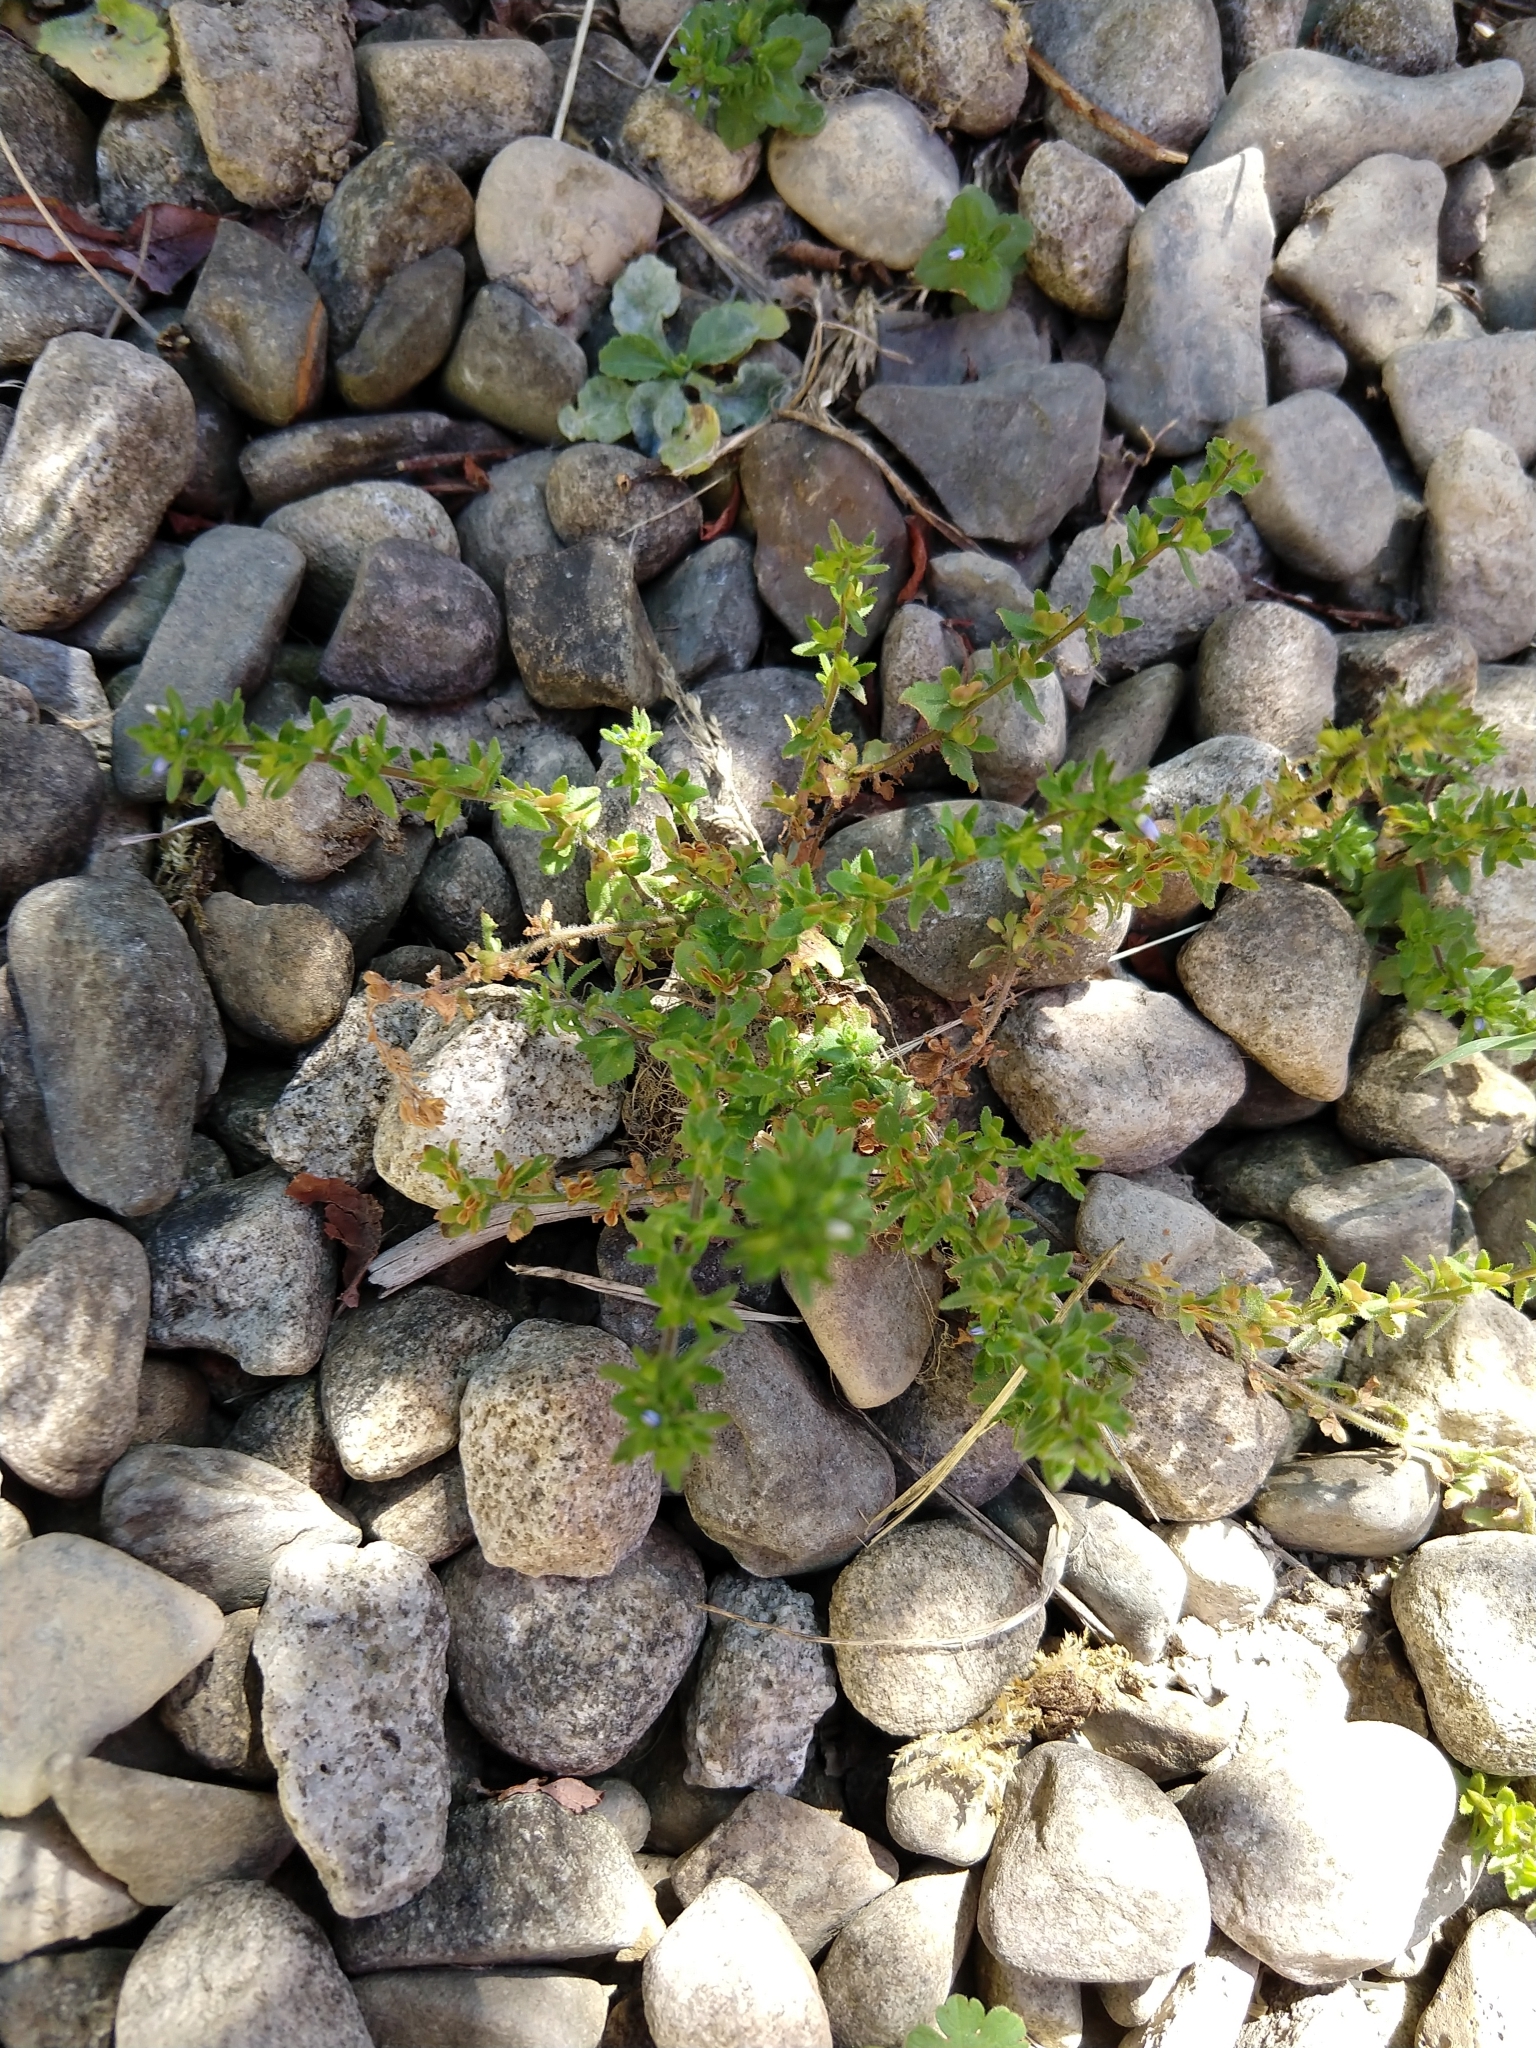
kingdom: Plantae
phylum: Tracheophyta
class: Magnoliopsida
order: Lamiales
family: Plantaginaceae
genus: Veronica
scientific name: Veronica arvensis
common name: Corn speedwell
